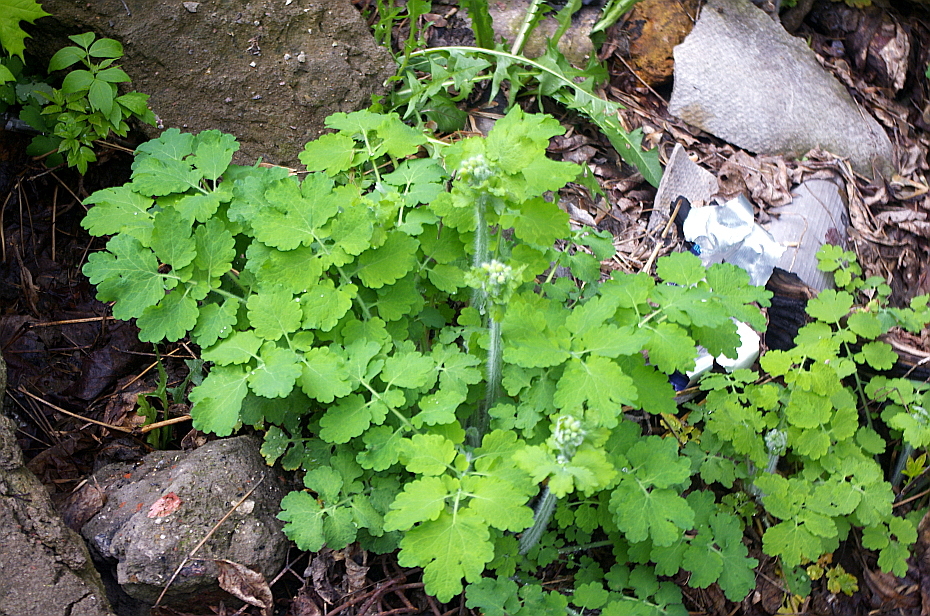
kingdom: Plantae
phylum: Tracheophyta
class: Magnoliopsida
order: Ranunculales
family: Papaveraceae
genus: Chelidonium
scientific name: Chelidonium majus
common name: Greater celandine
